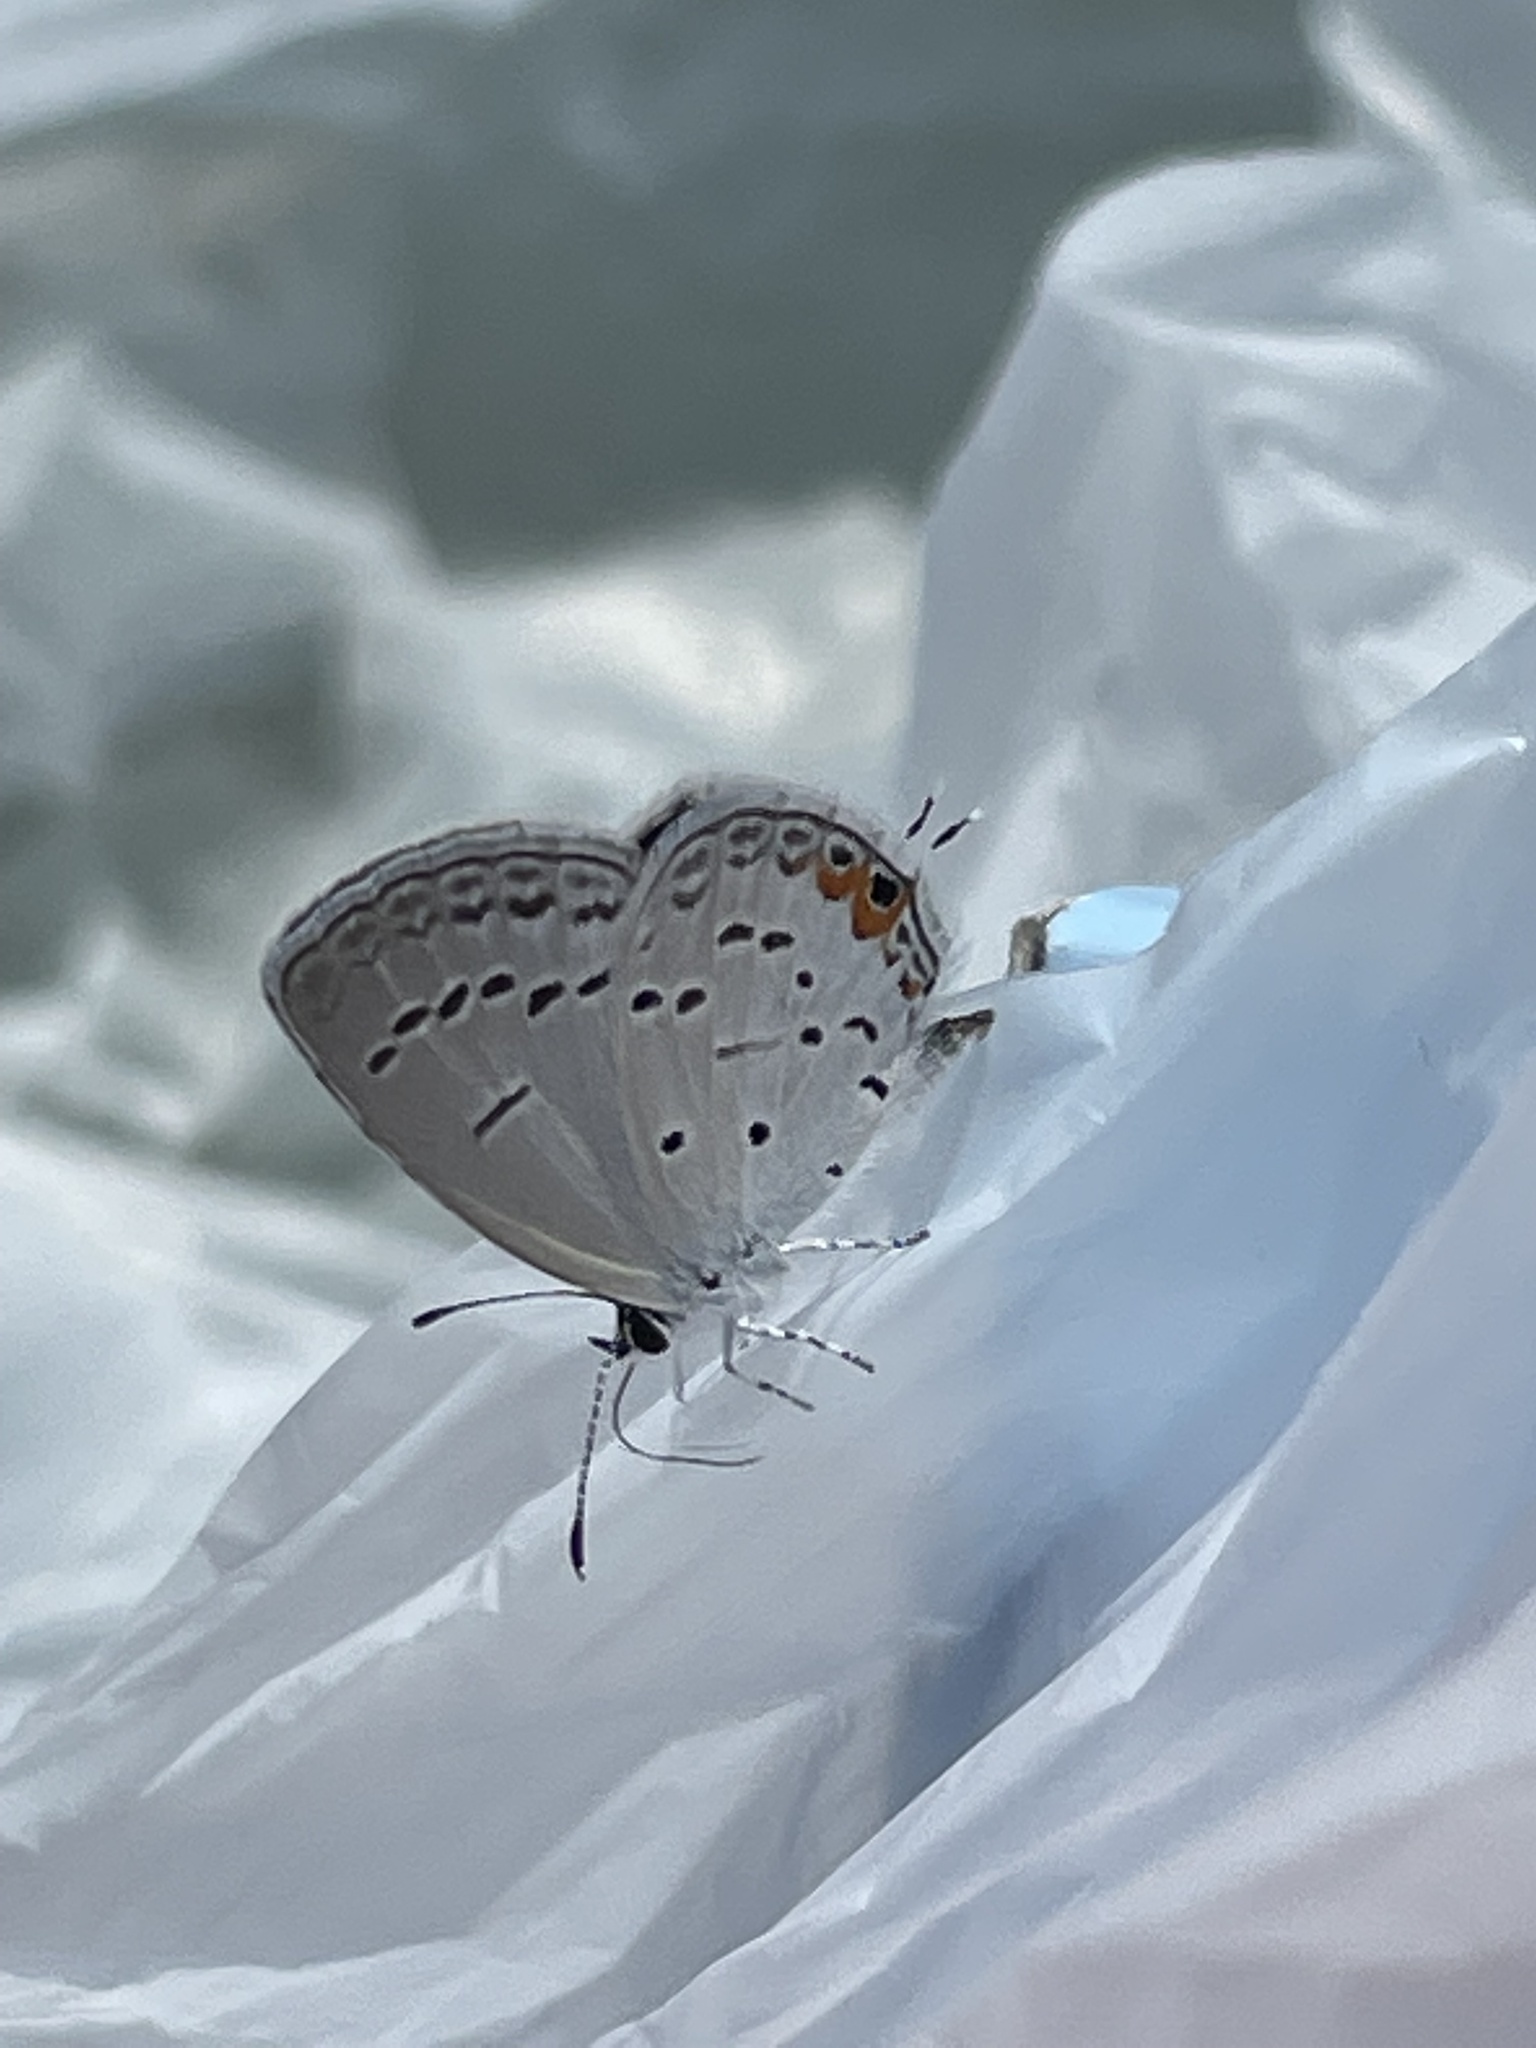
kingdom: Animalia
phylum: Arthropoda
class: Insecta
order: Lepidoptera
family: Lycaenidae
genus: Elkalyce
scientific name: Elkalyce comyntas
